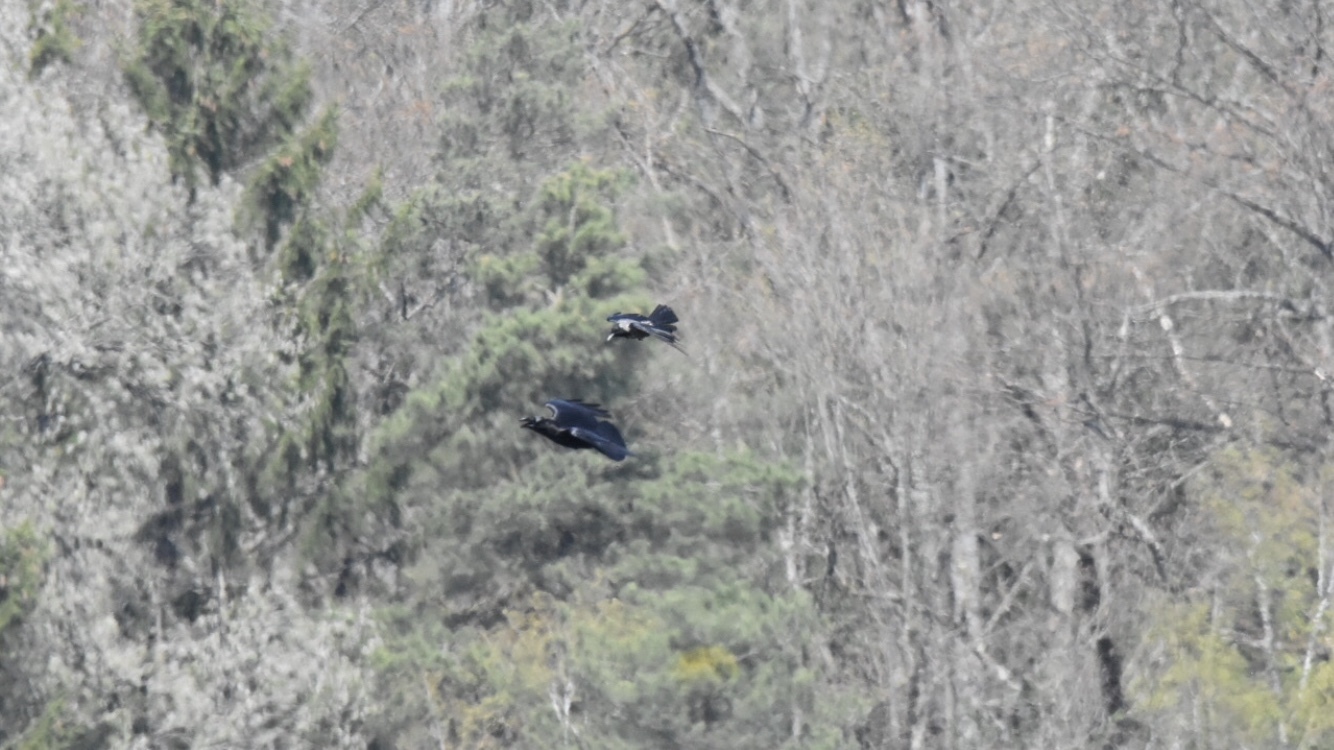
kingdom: Animalia
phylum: Chordata
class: Aves
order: Passeriformes
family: Corvidae
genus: Corvus
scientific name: Corvus corax
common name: Common raven
